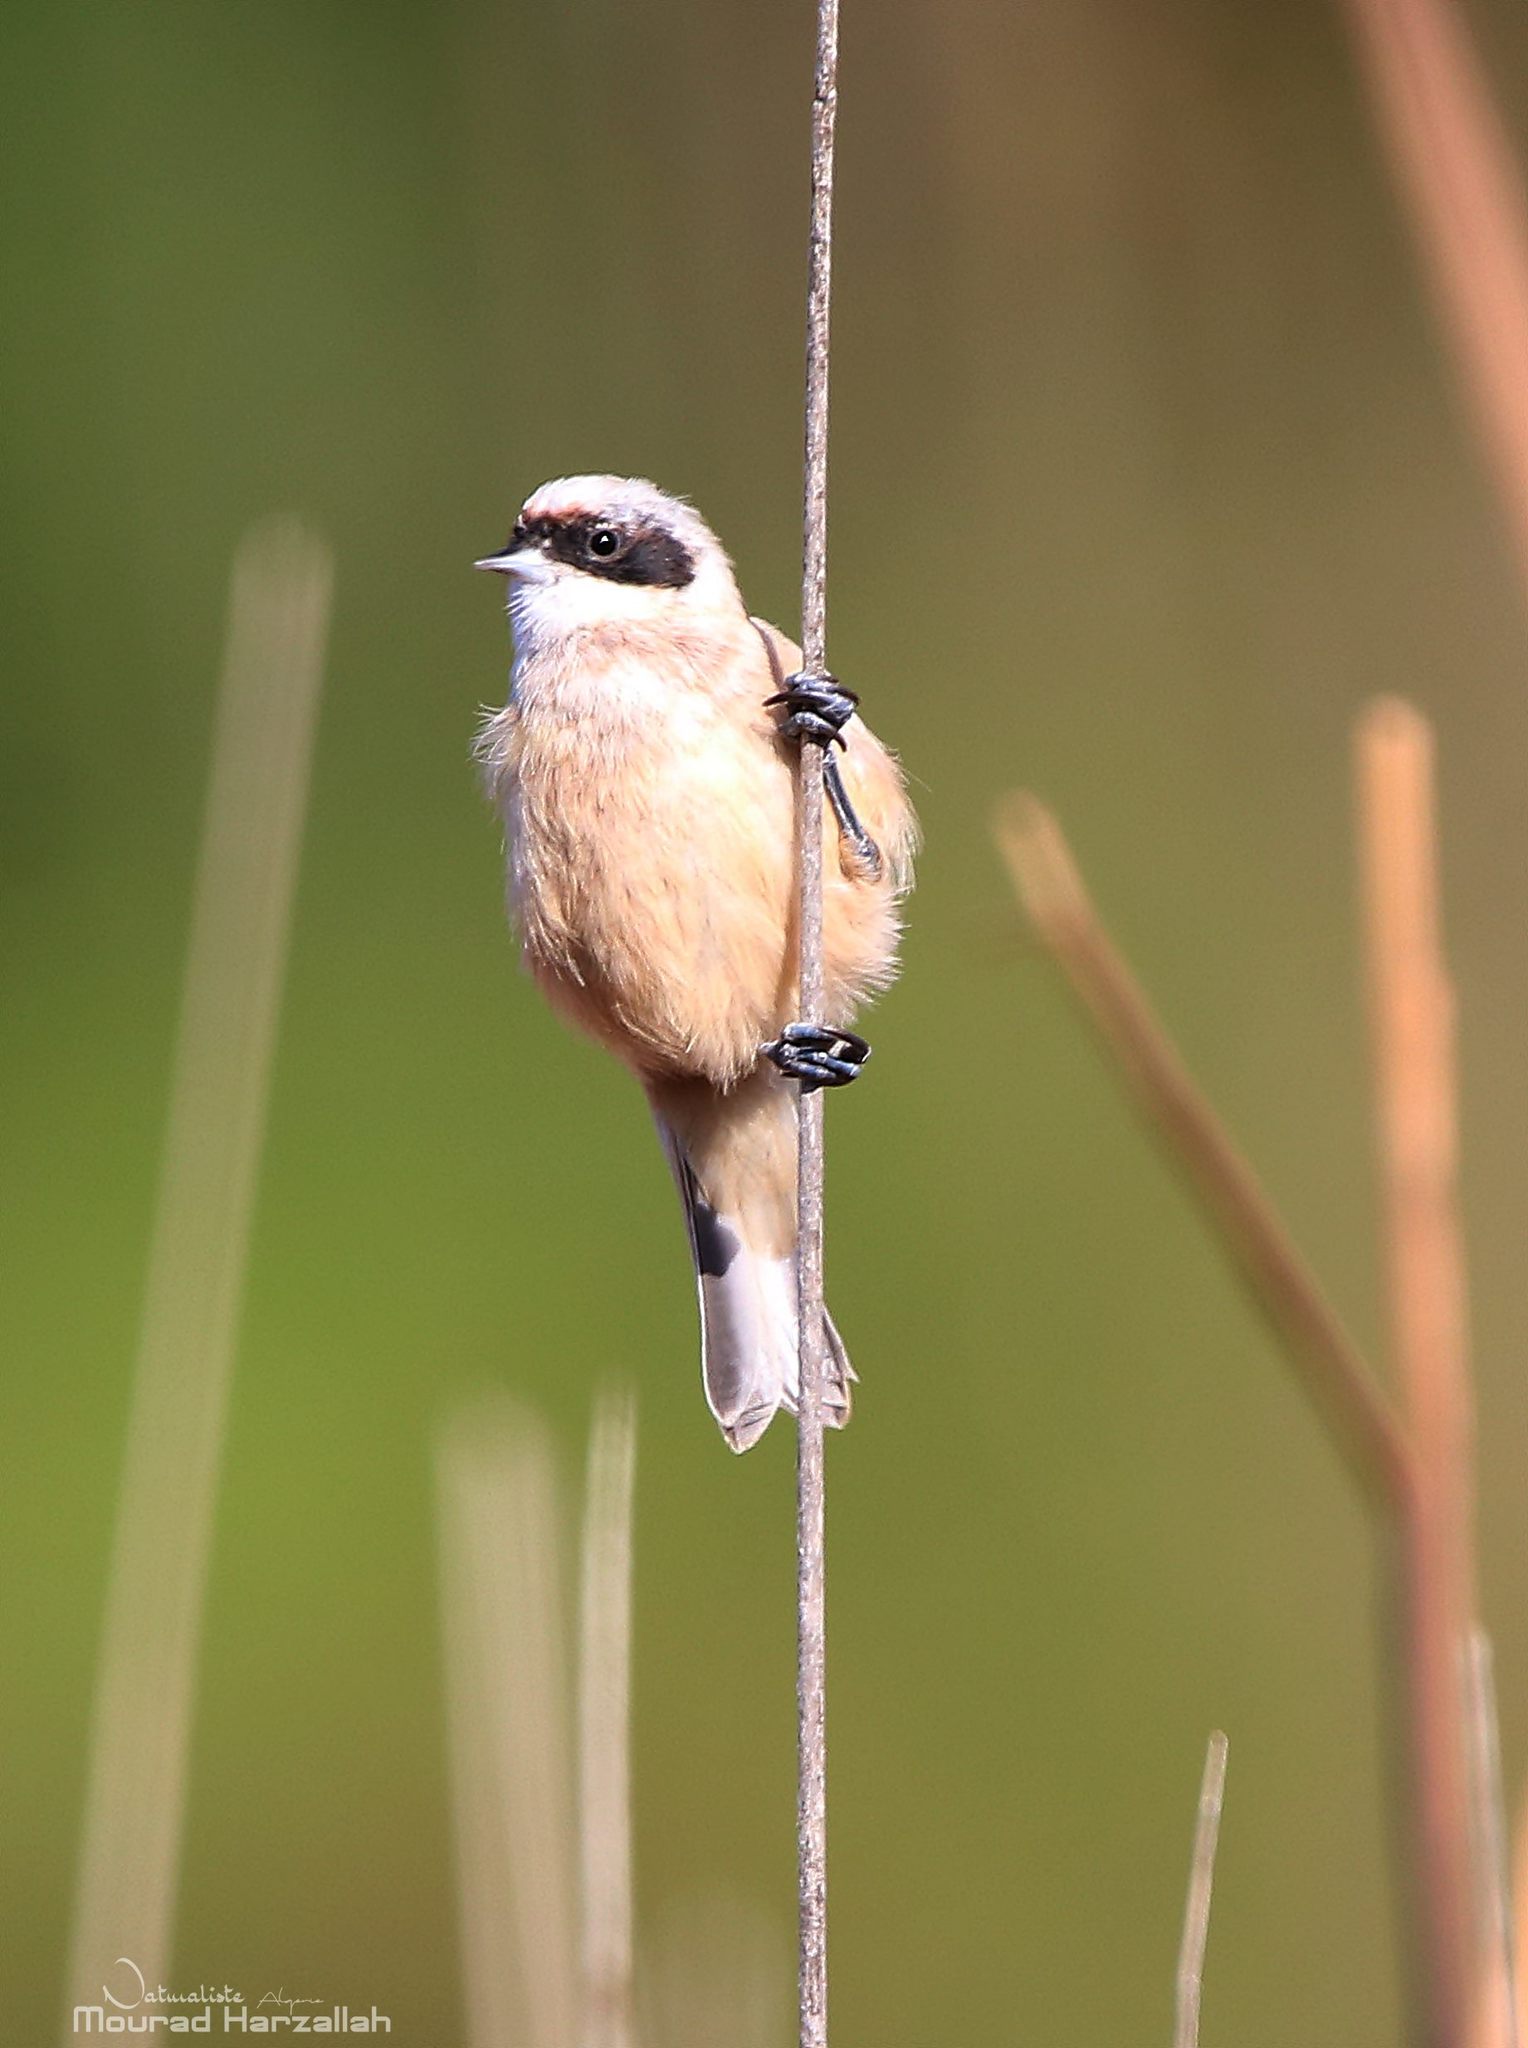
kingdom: Animalia
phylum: Chordata
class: Aves
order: Passeriformes
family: Remizidae
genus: Remiz
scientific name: Remiz pendulinus
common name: Eurasian penduline tit
